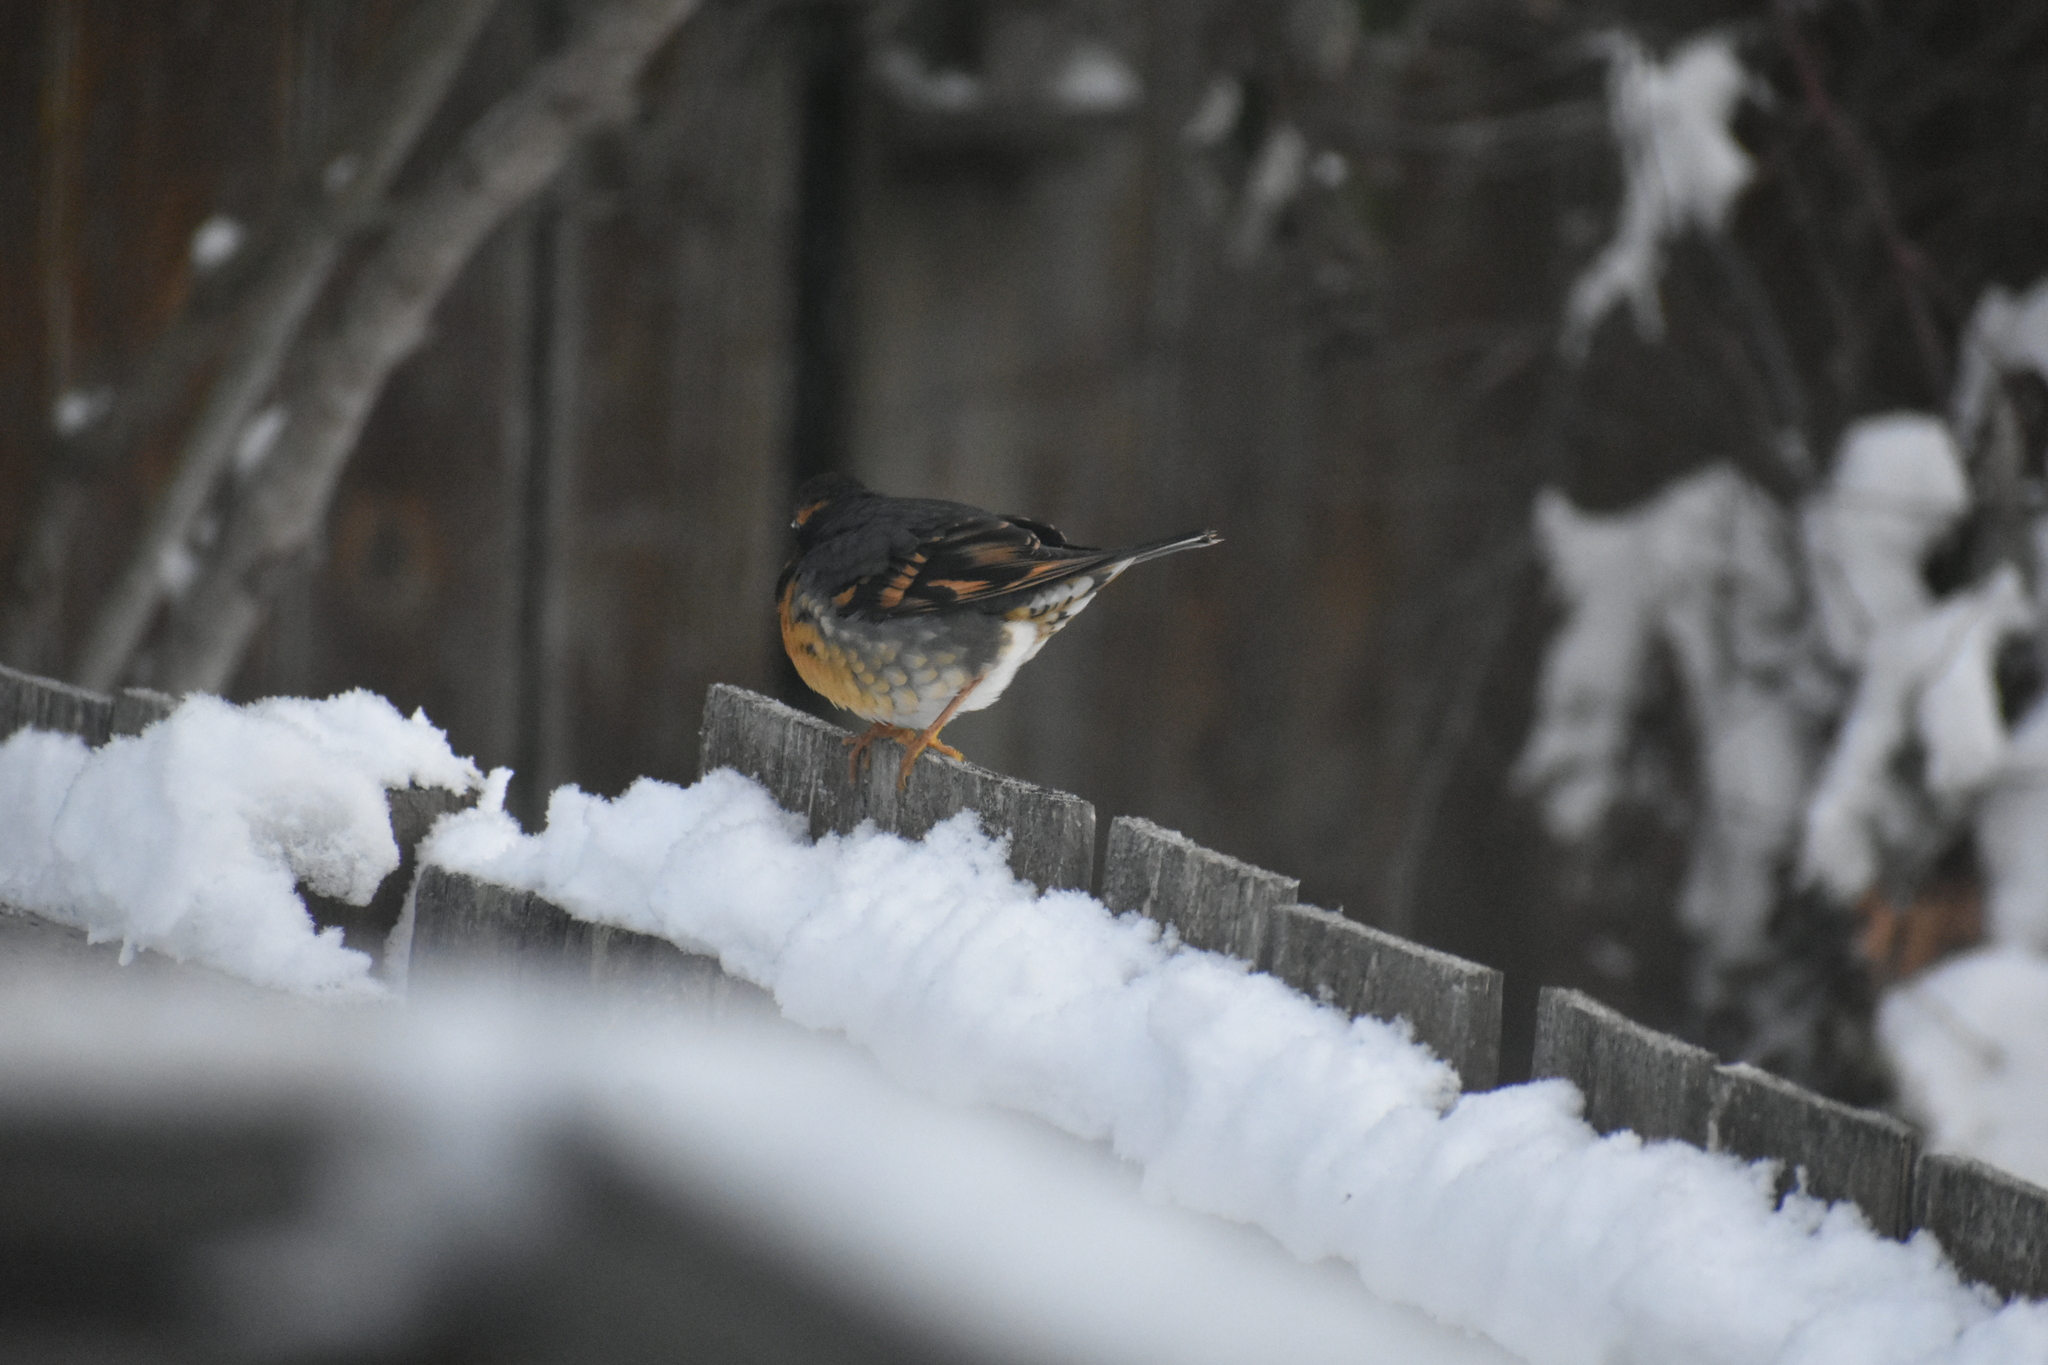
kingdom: Animalia
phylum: Chordata
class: Aves
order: Passeriformes
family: Turdidae
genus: Ixoreus
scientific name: Ixoreus naevius
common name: Varied thrush
